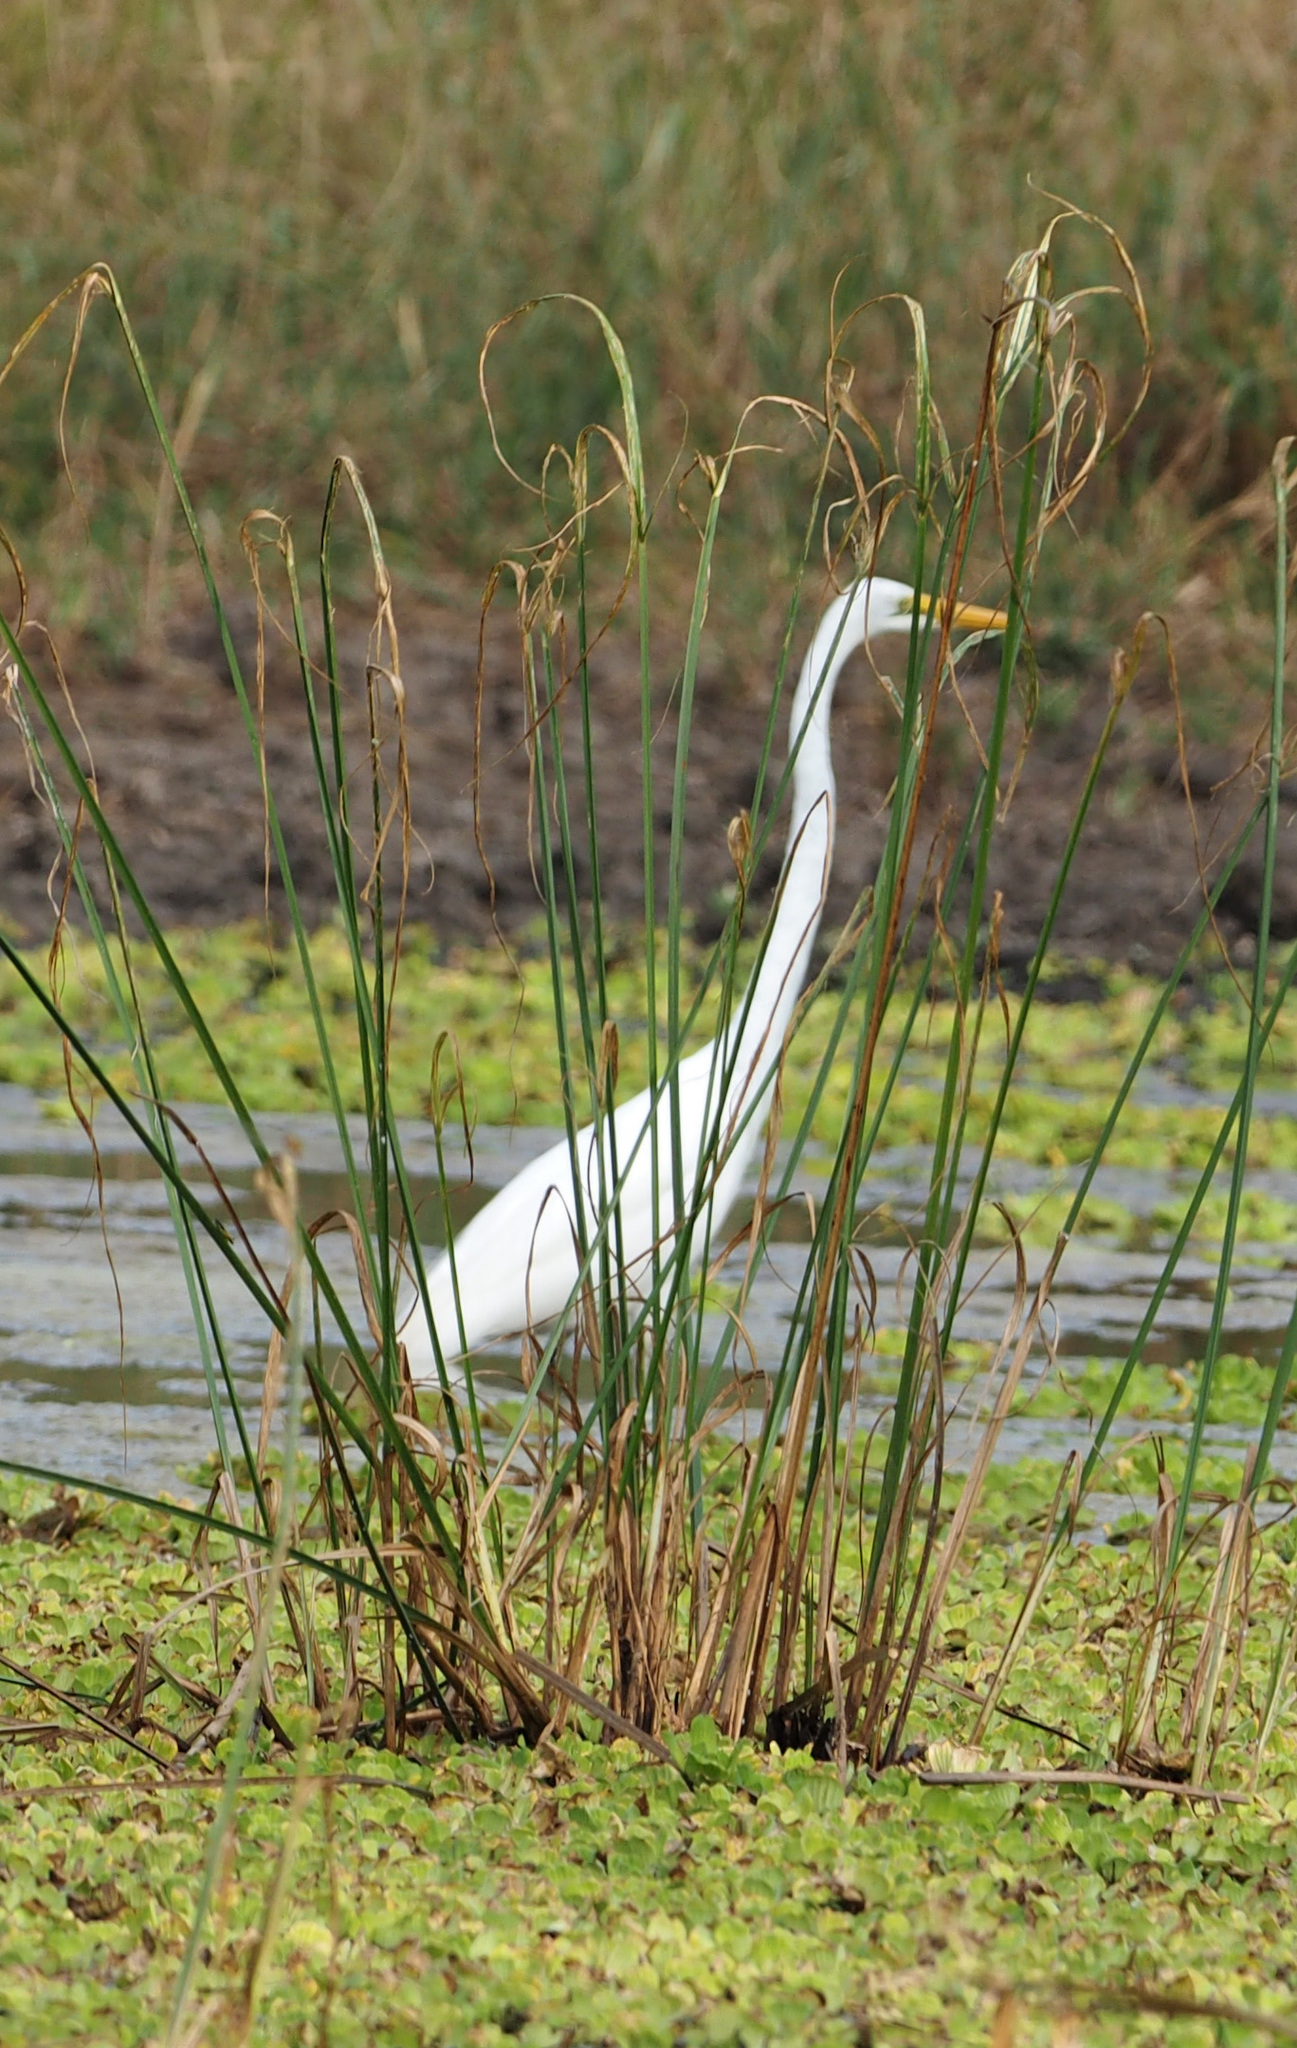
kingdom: Animalia
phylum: Chordata
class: Aves
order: Pelecaniformes
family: Ardeidae
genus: Ardea
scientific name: Ardea alba
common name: Great egret
